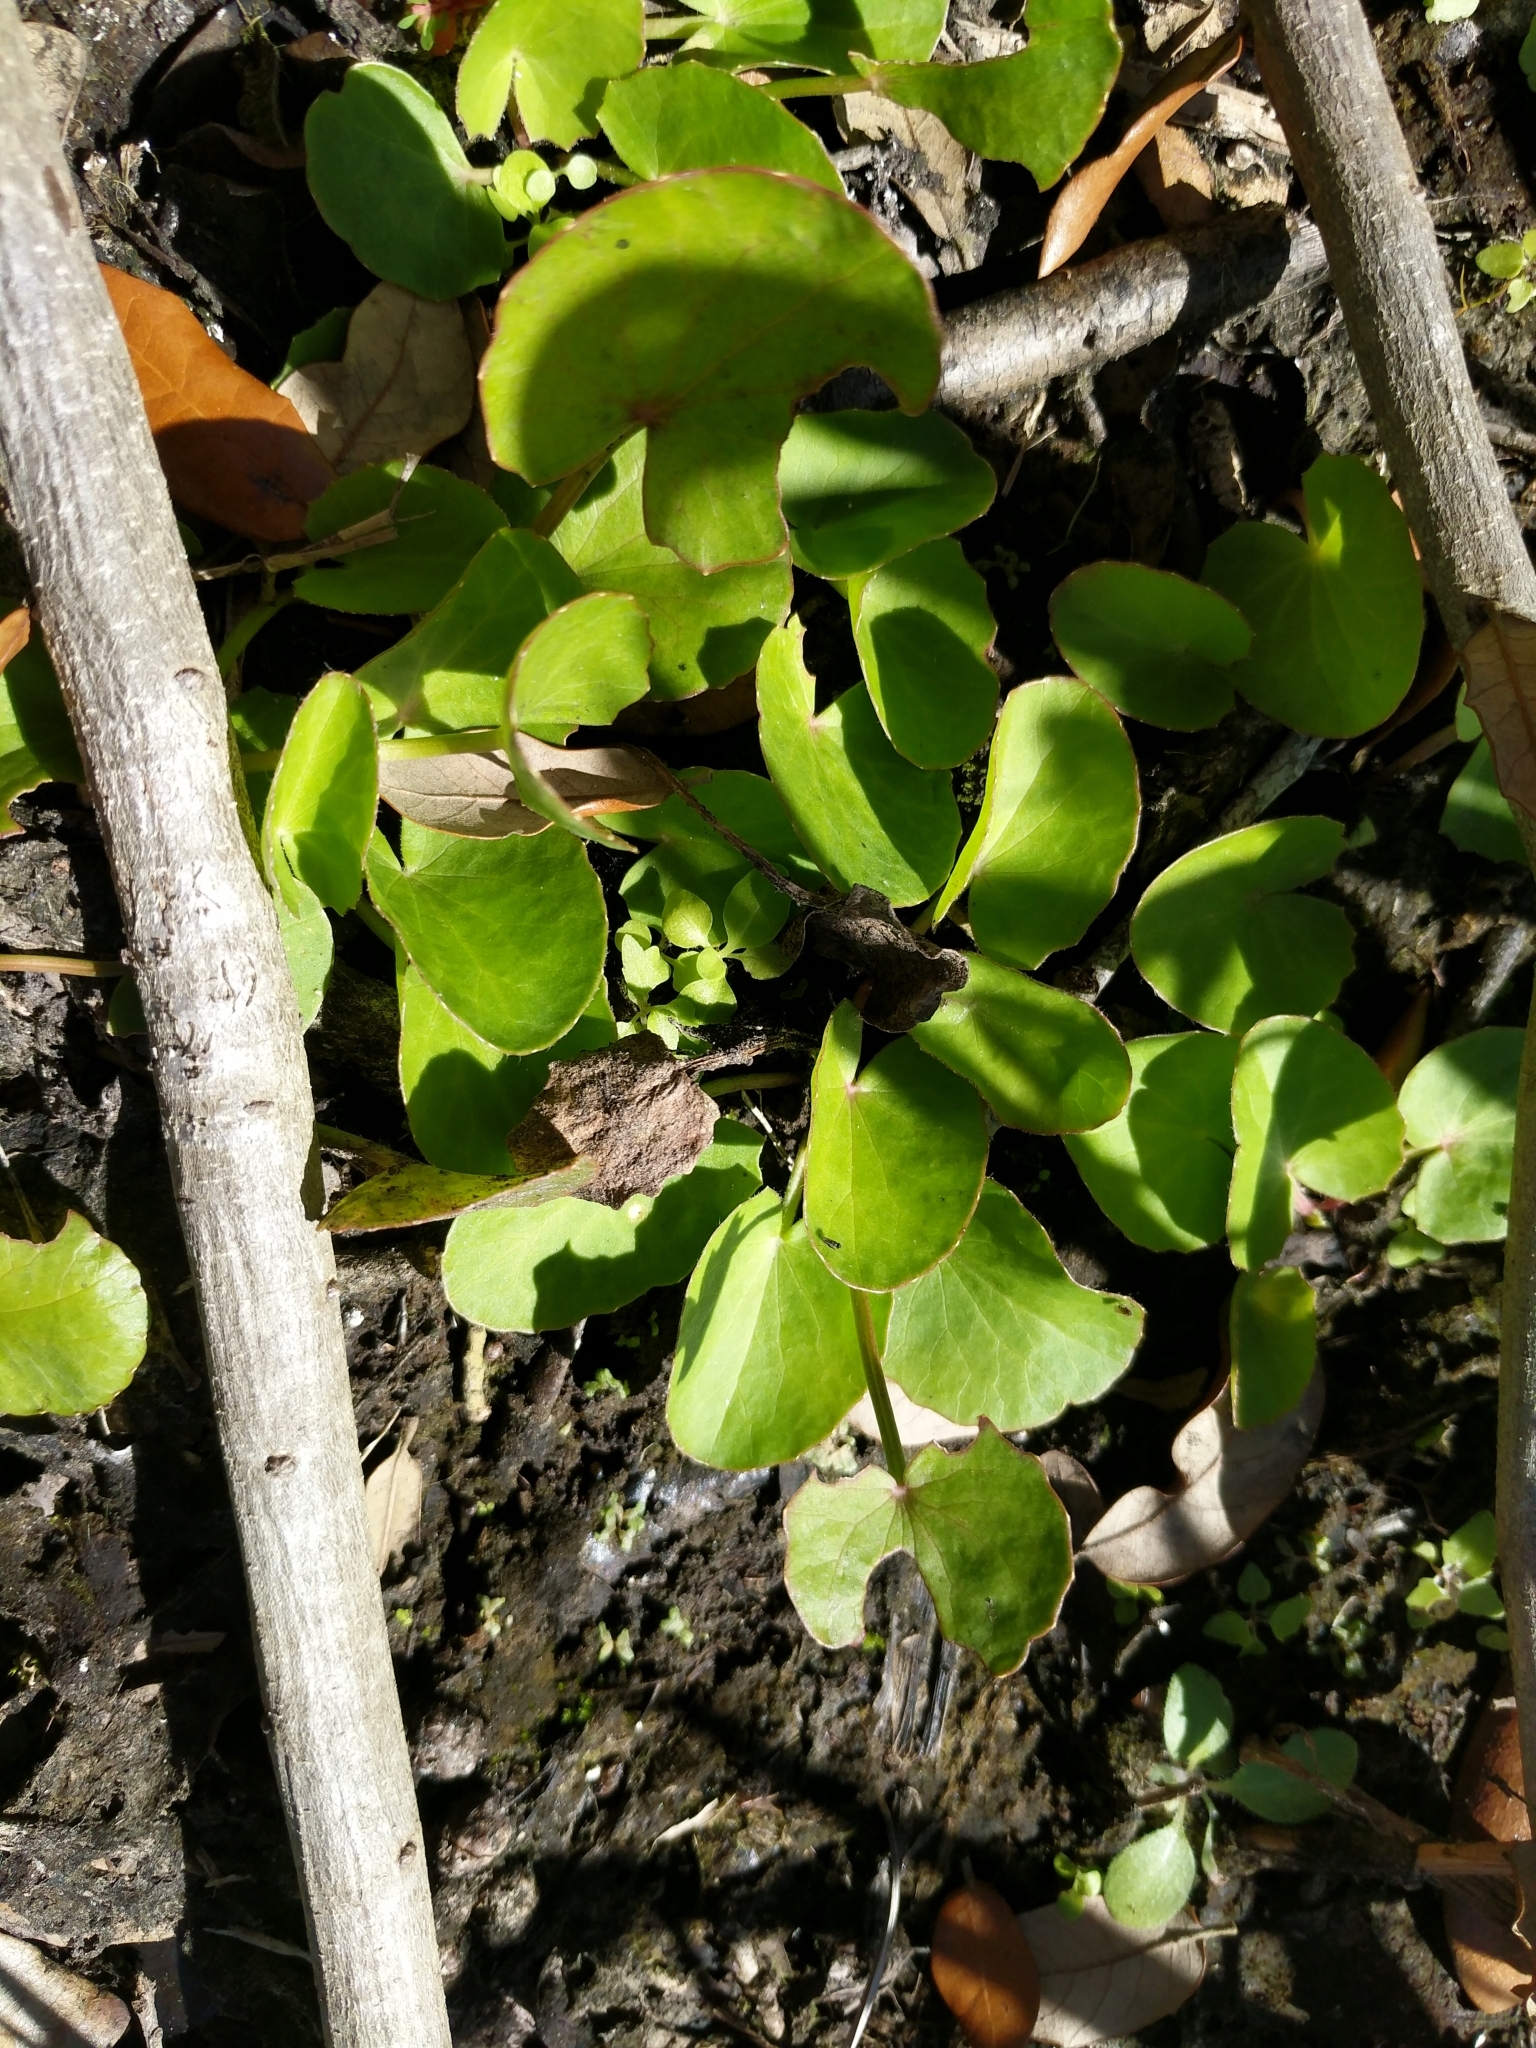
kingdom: Plantae
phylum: Tracheophyta
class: Magnoliopsida
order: Apiales
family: Apiaceae
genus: Centella
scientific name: Centella erecta
